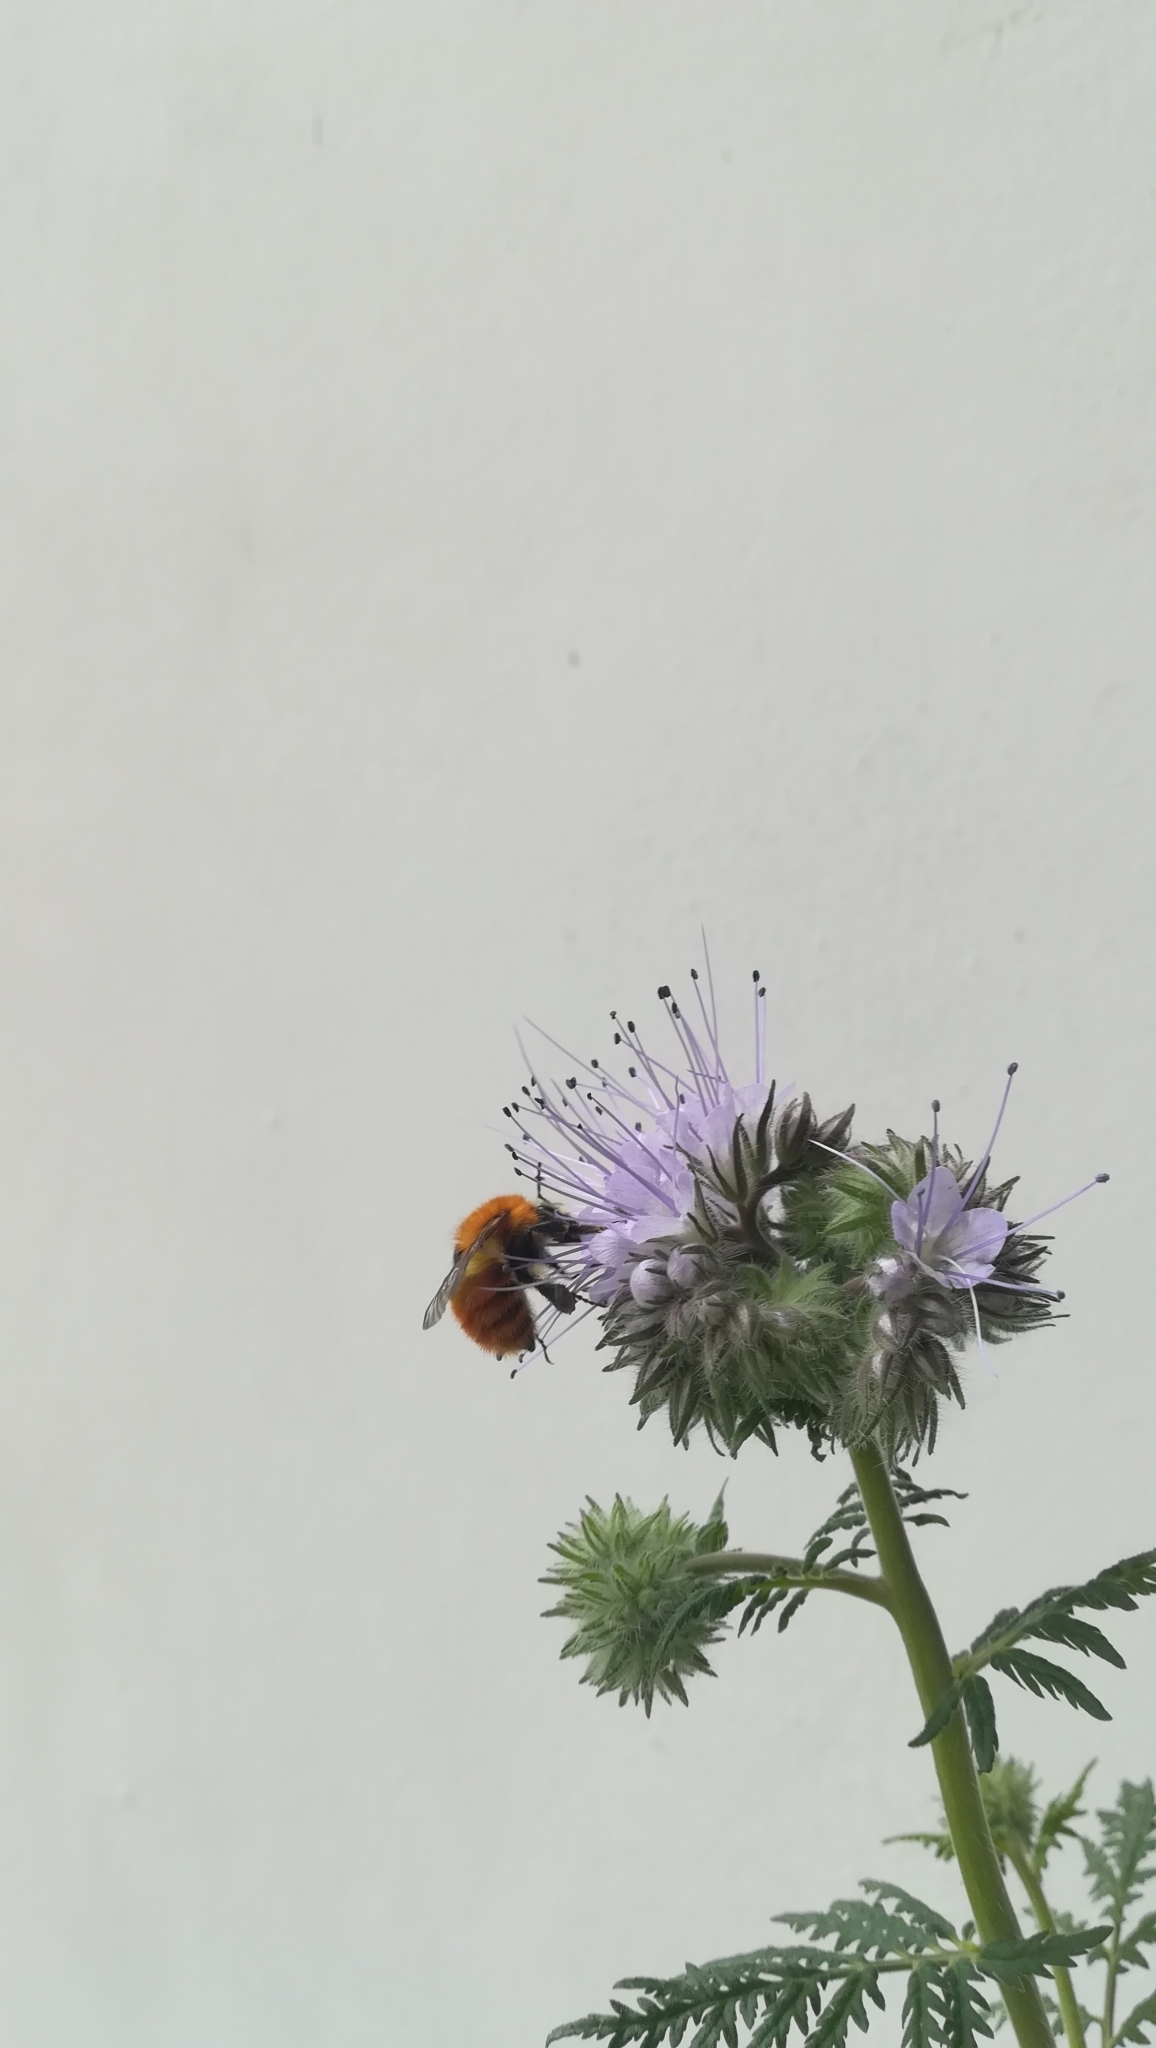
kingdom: Animalia
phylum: Arthropoda
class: Insecta
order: Hymenoptera
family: Apidae
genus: Bombus
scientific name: Bombus pascuorum
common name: Common carder bee
